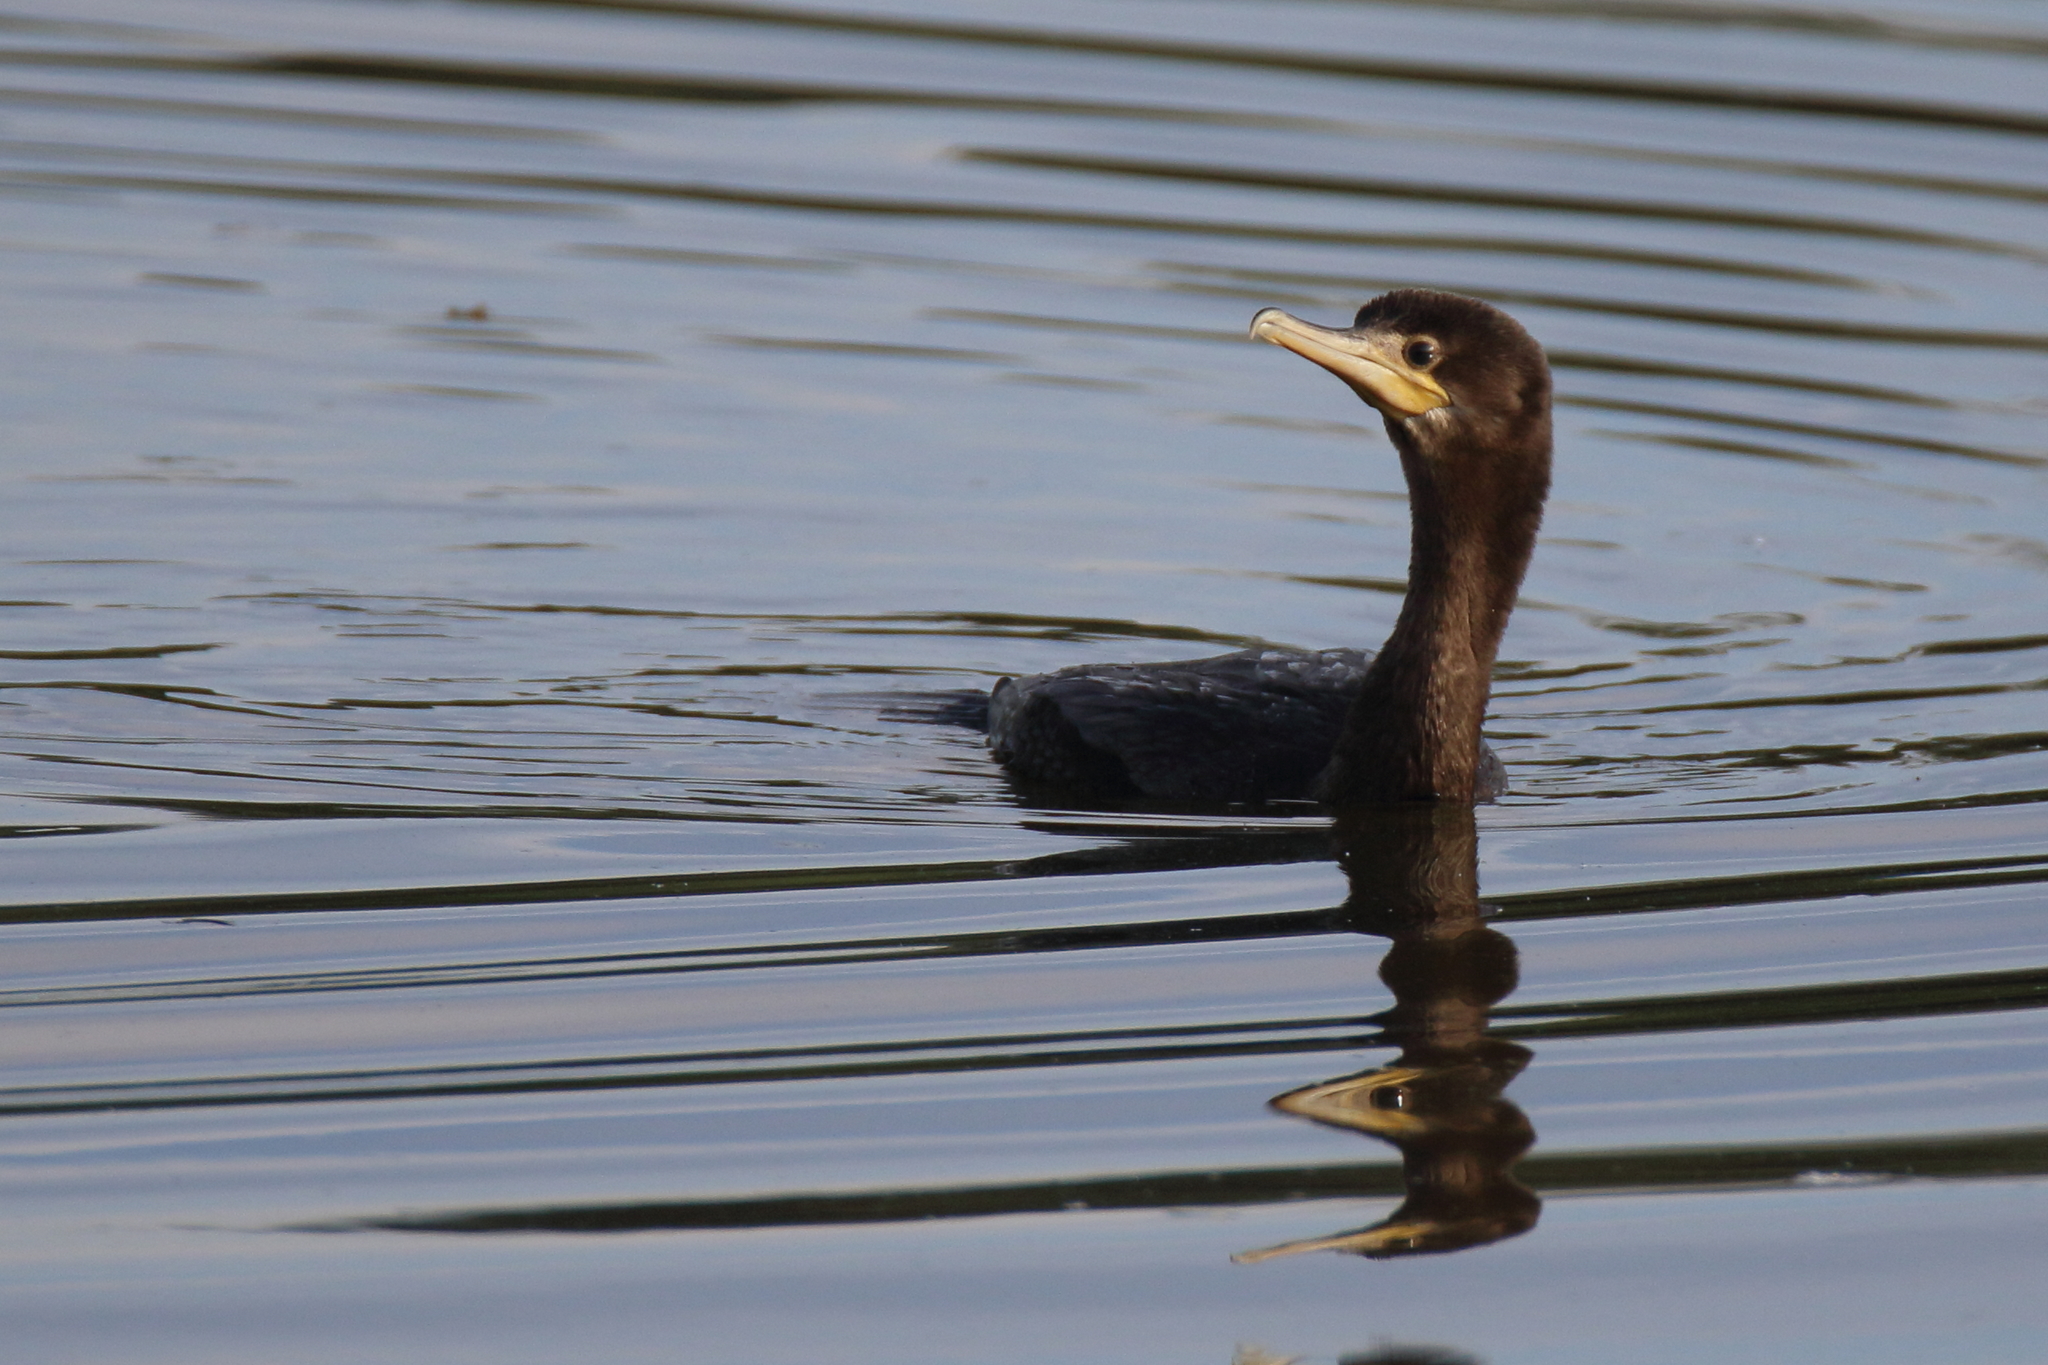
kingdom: Animalia
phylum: Chordata
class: Aves
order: Suliformes
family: Phalacrocoracidae
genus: Phalacrocorax
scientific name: Phalacrocorax brasilianus
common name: Neotropic cormorant
